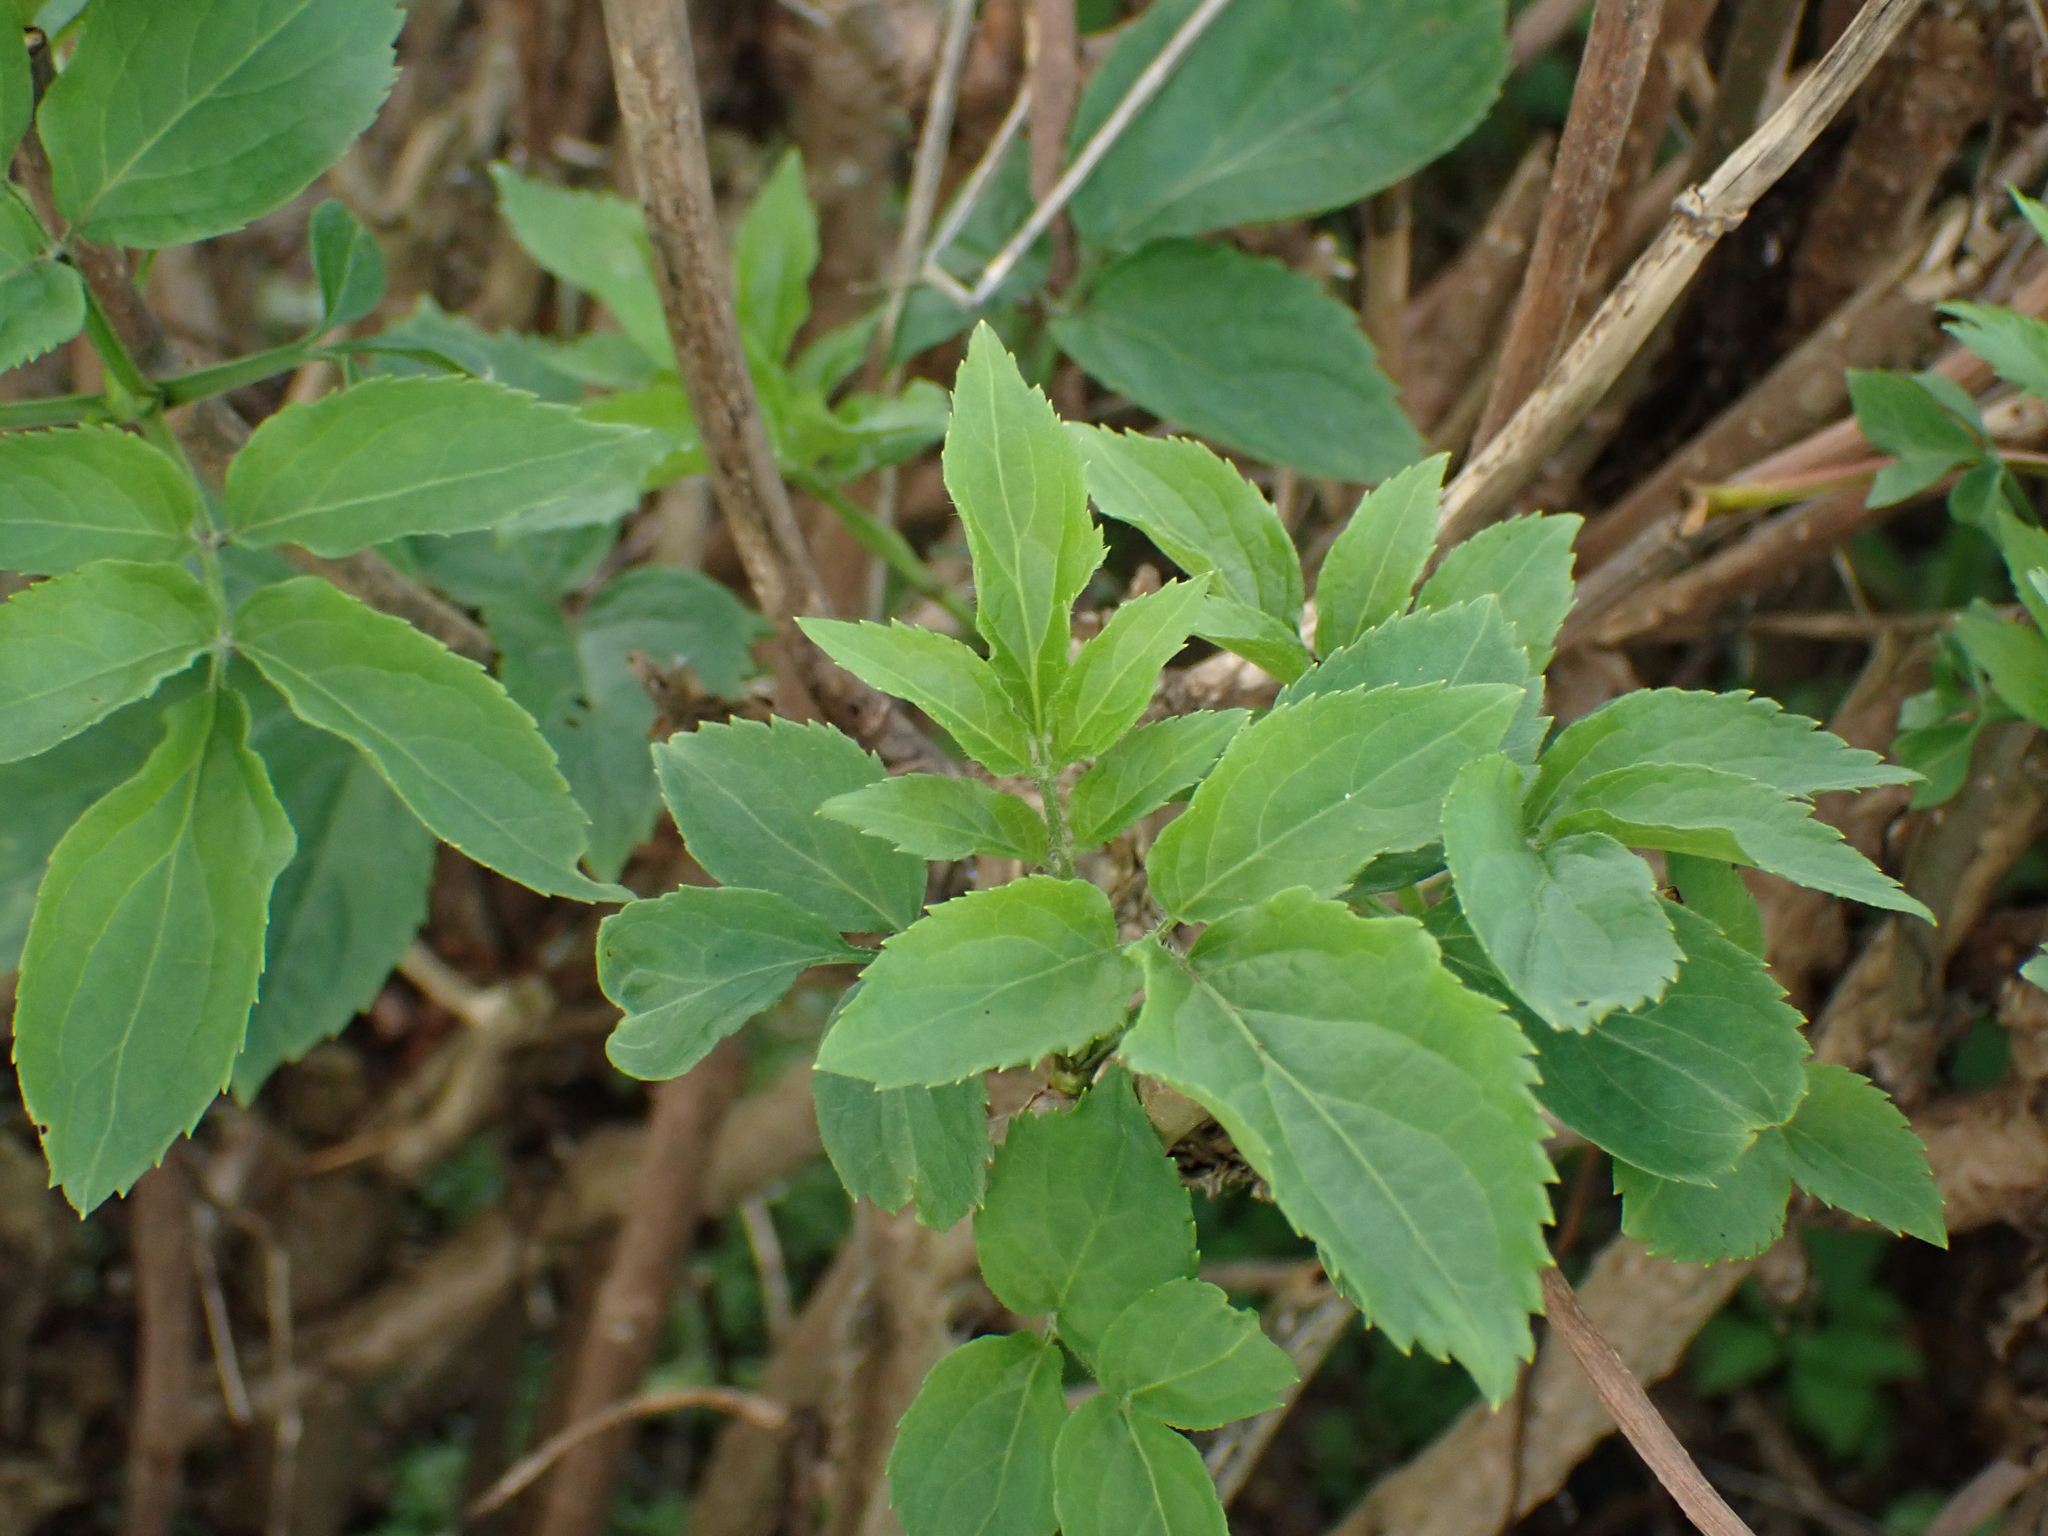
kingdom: Plantae
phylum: Tracheophyta
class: Magnoliopsida
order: Dipsacales
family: Viburnaceae
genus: Sambucus
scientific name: Sambucus nigra
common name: Elder
